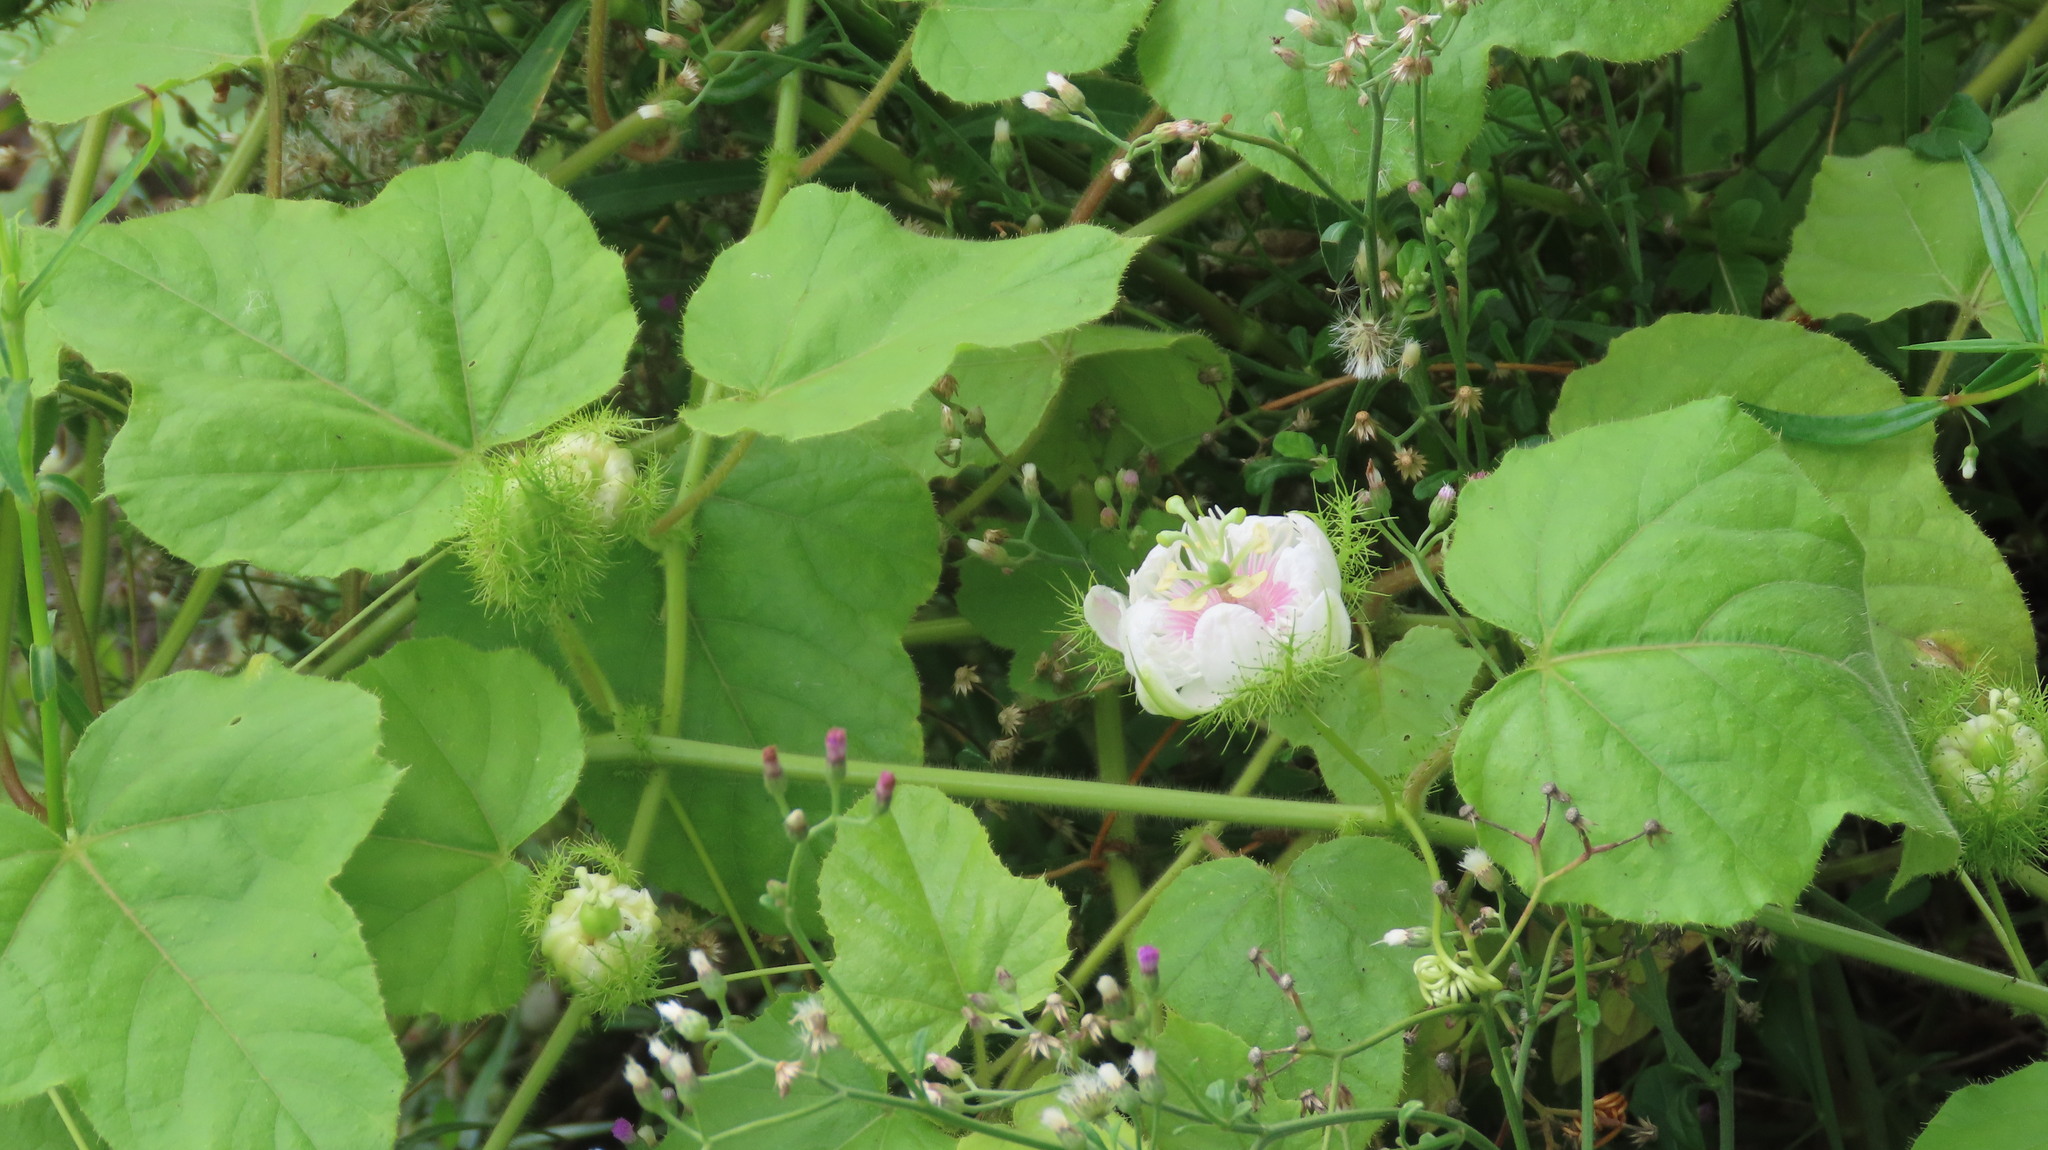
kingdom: Plantae
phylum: Tracheophyta
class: Magnoliopsida
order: Malpighiales
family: Passifloraceae
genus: Passiflora
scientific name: Passiflora vesicaria
